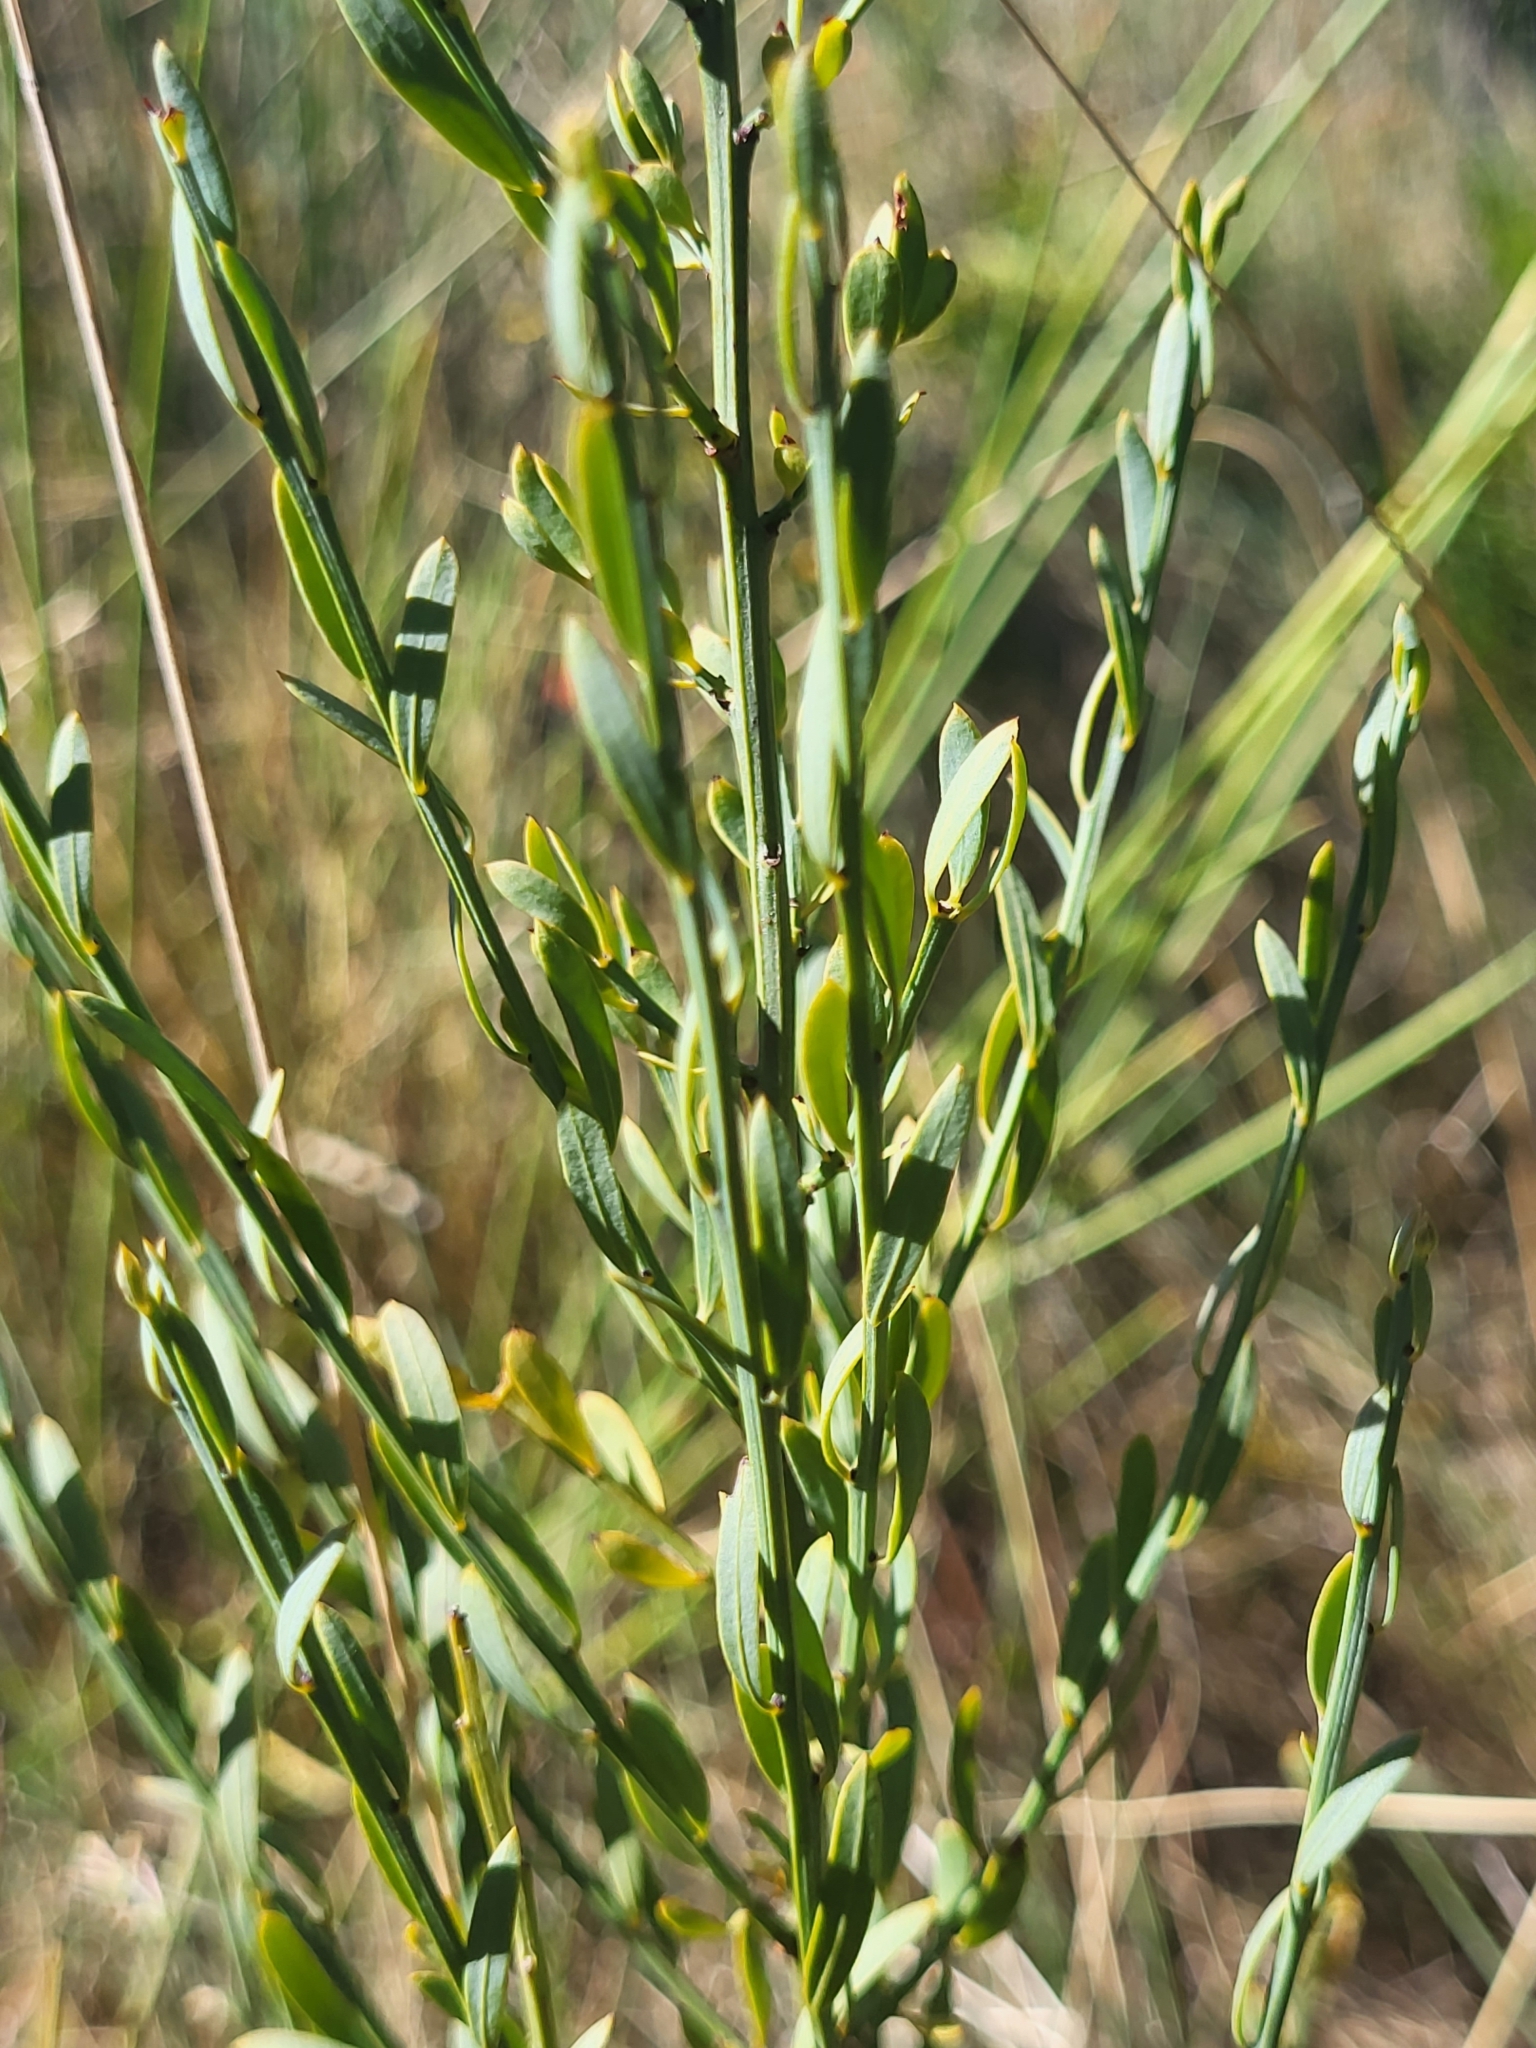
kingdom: Plantae
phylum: Tracheophyta
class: Magnoliopsida
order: Santalales
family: Santalaceae
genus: Osyris
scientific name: Osyris alba
